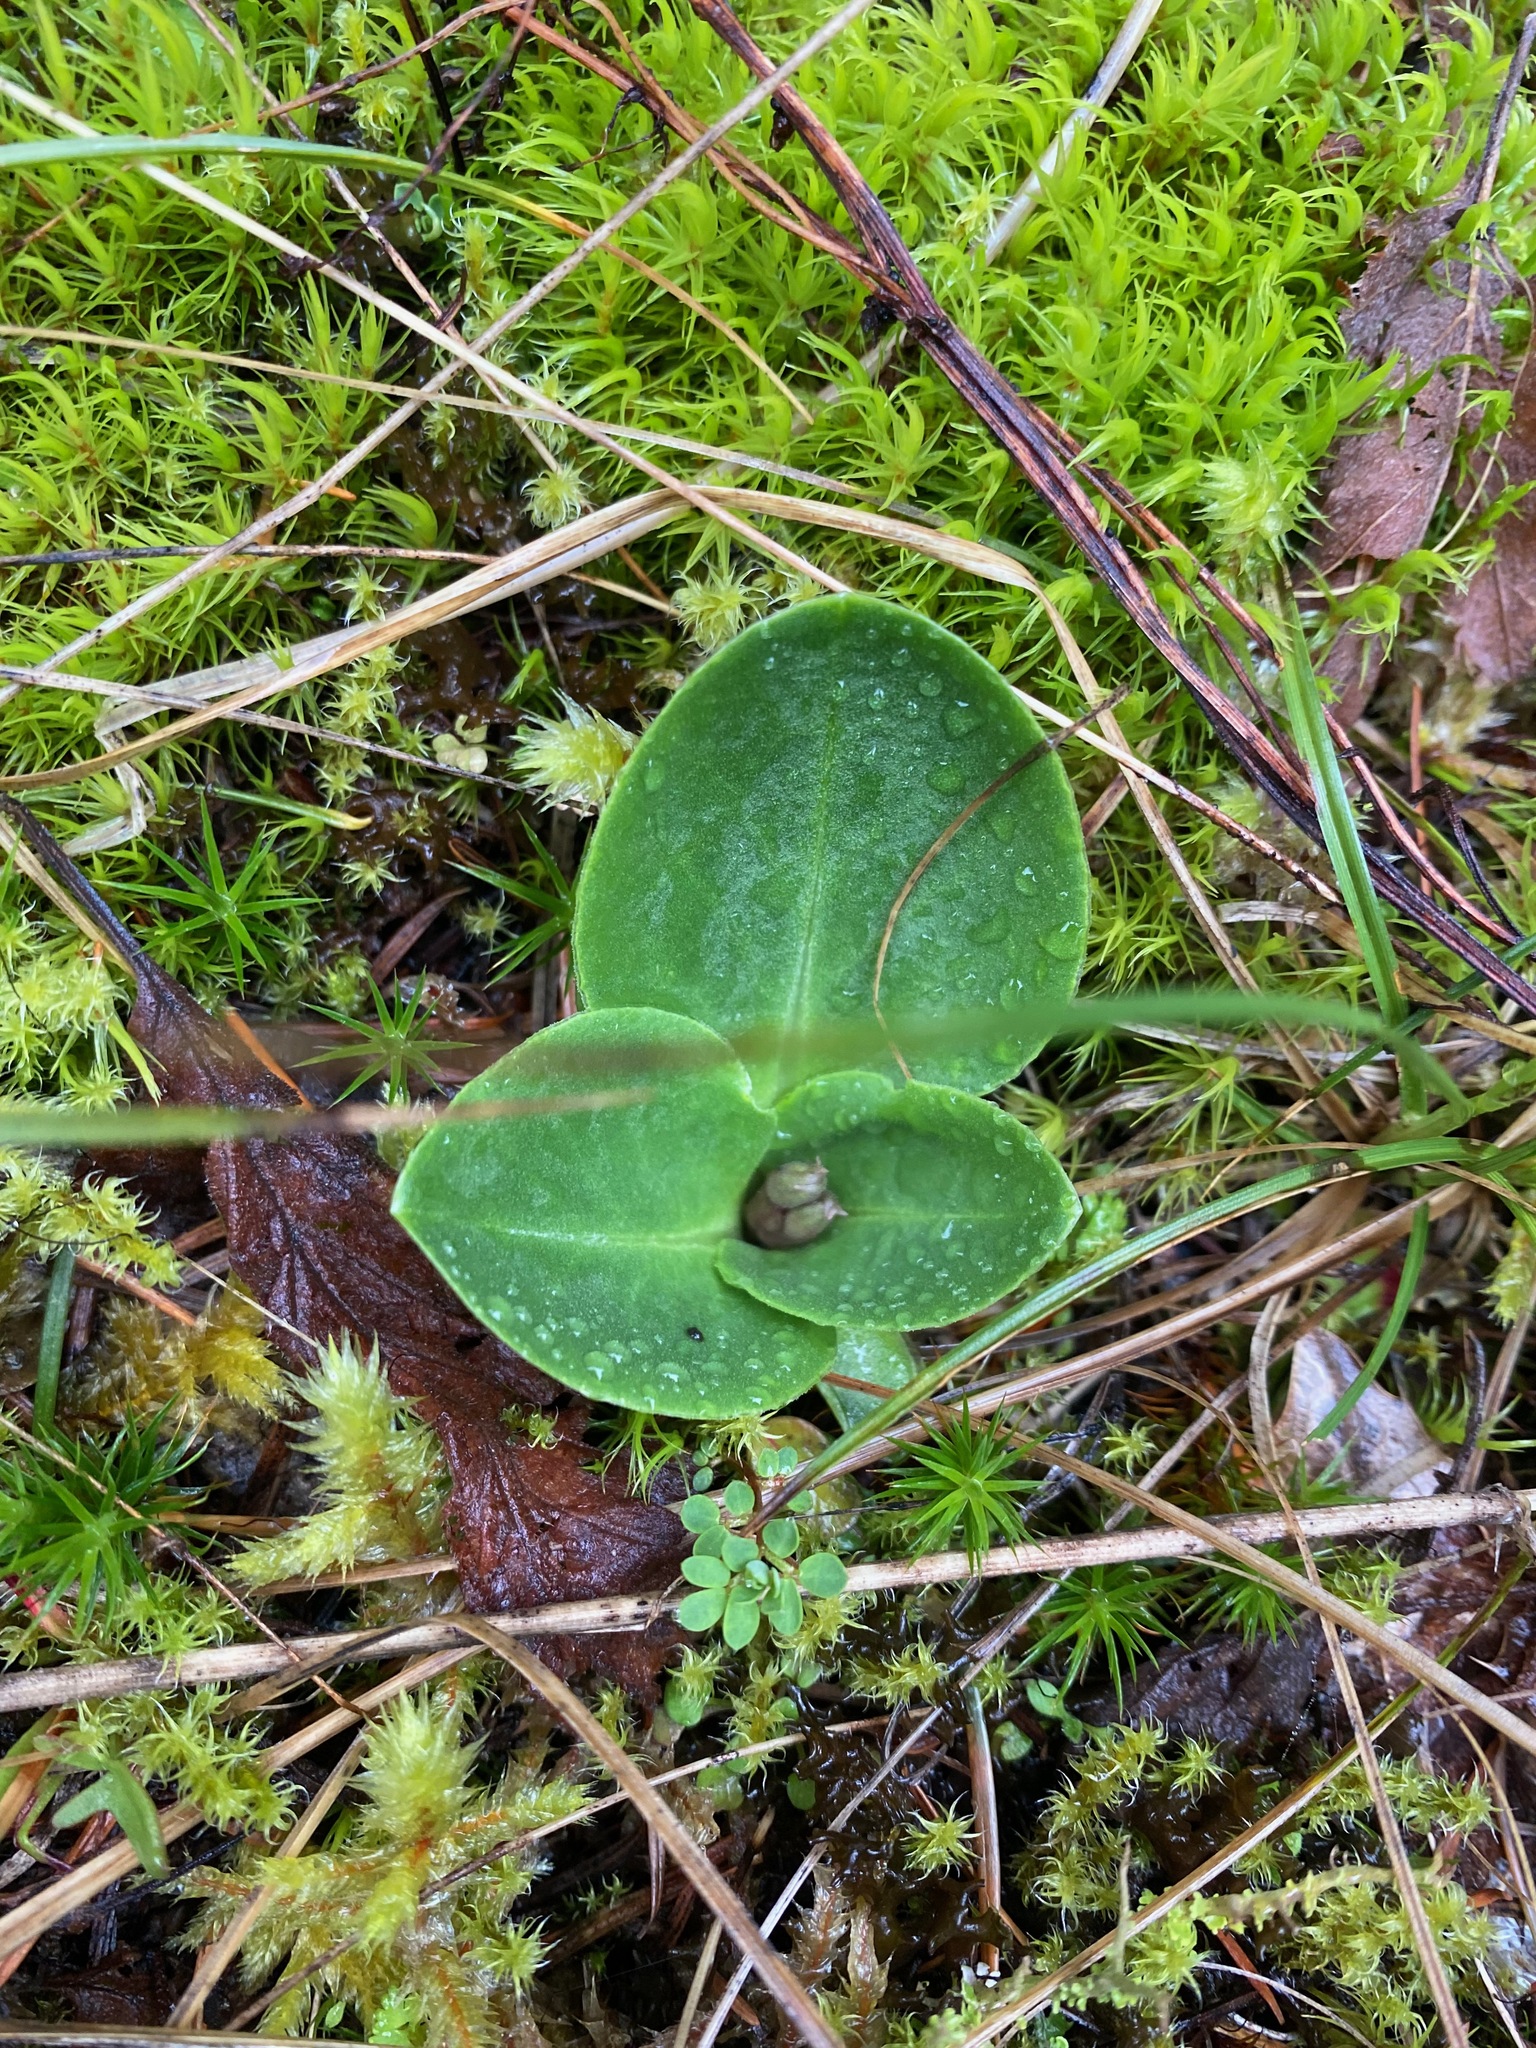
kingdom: Plantae
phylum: Tracheophyta
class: Magnoliopsida
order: Ericales
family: Primulaceae
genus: Dodecatheon
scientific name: Dodecatheon hendersonii
